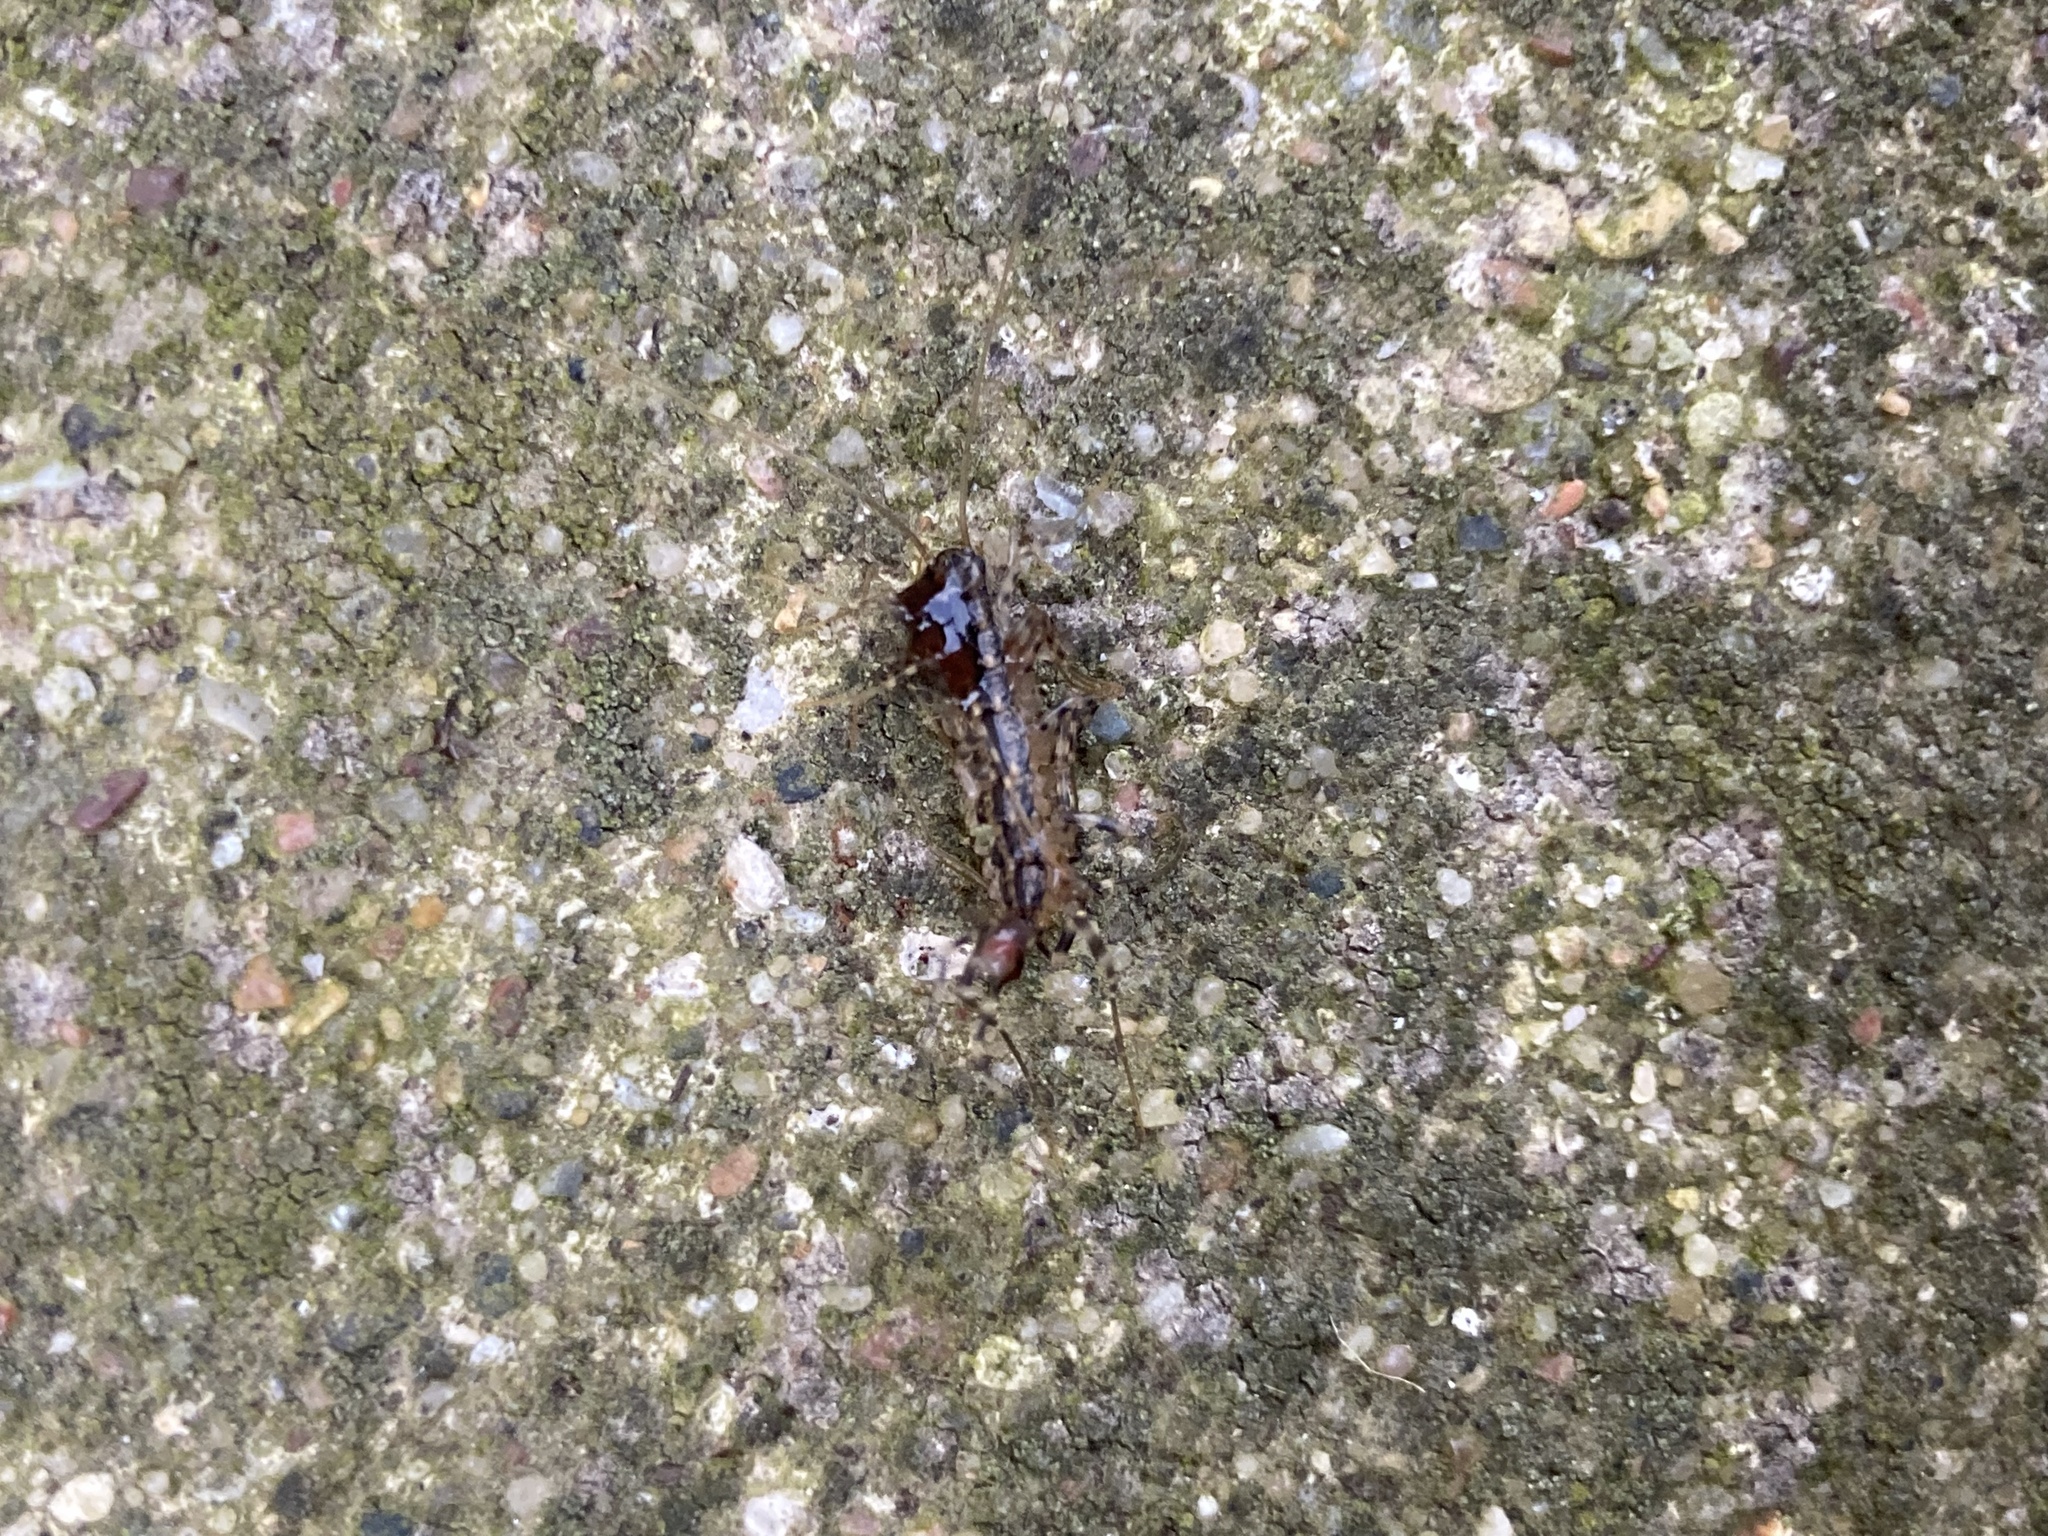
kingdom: Animalia
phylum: Arthropoda
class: Chilopoda
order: Scutigeromorpha
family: Scutigeridae
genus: Scutigera
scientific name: Scutigera coleoptrata
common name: House centipede
